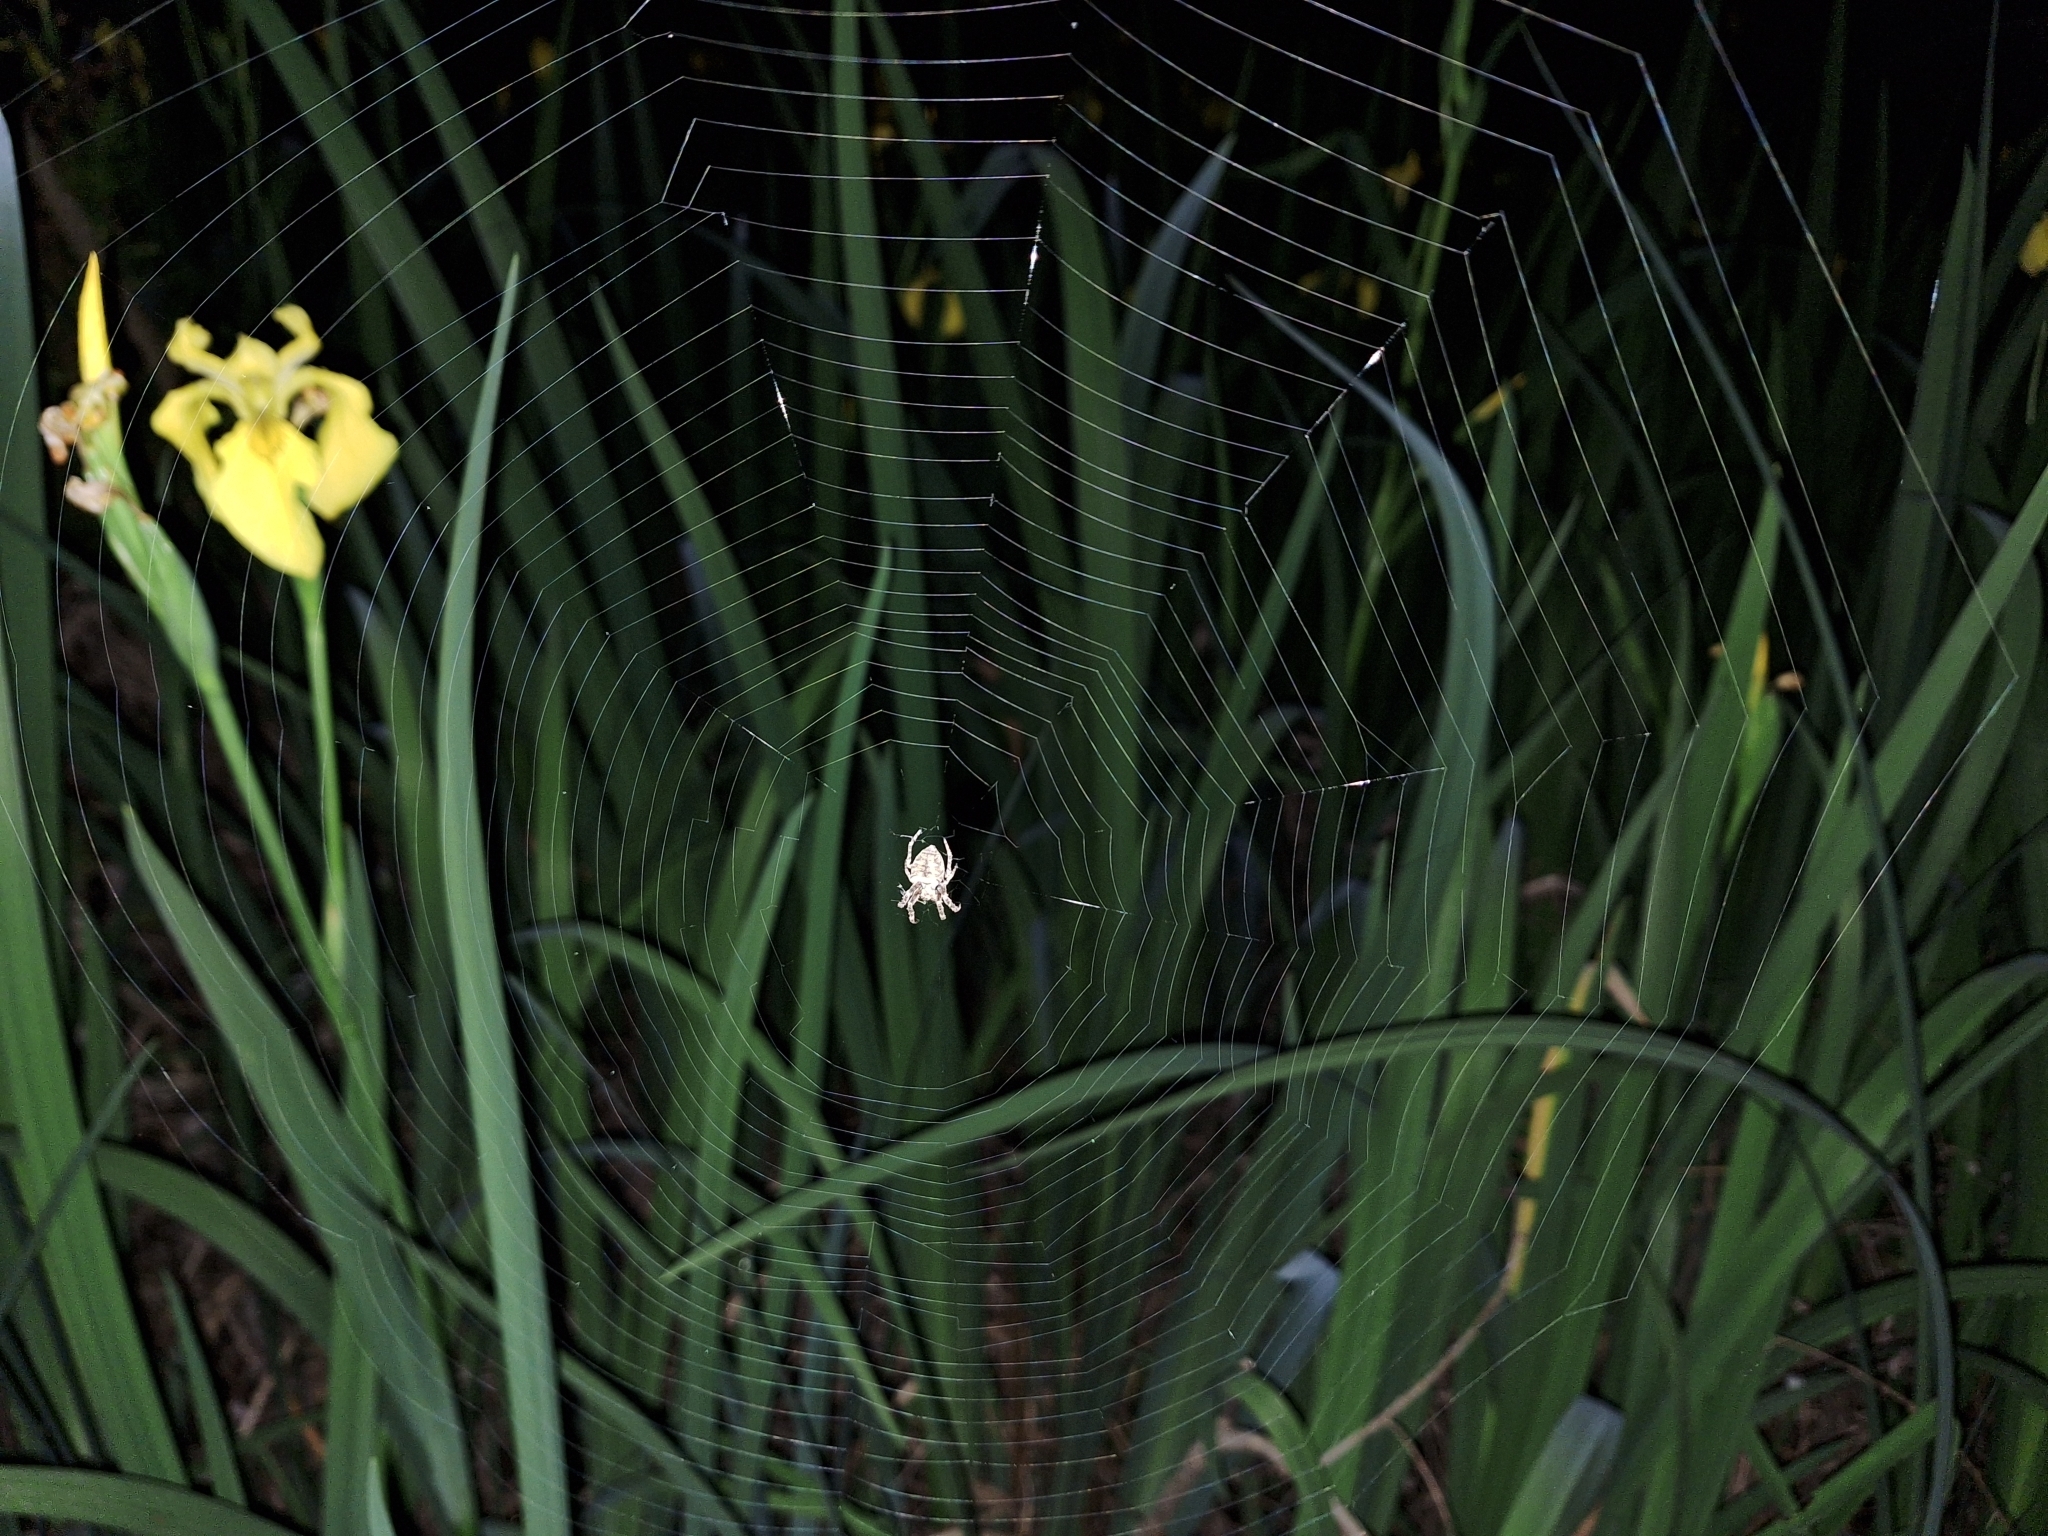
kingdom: Animalia
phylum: Arthropoda
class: Arachnida
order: Araneae
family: Araneidae
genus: Parawixia
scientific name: Parawixia audax
